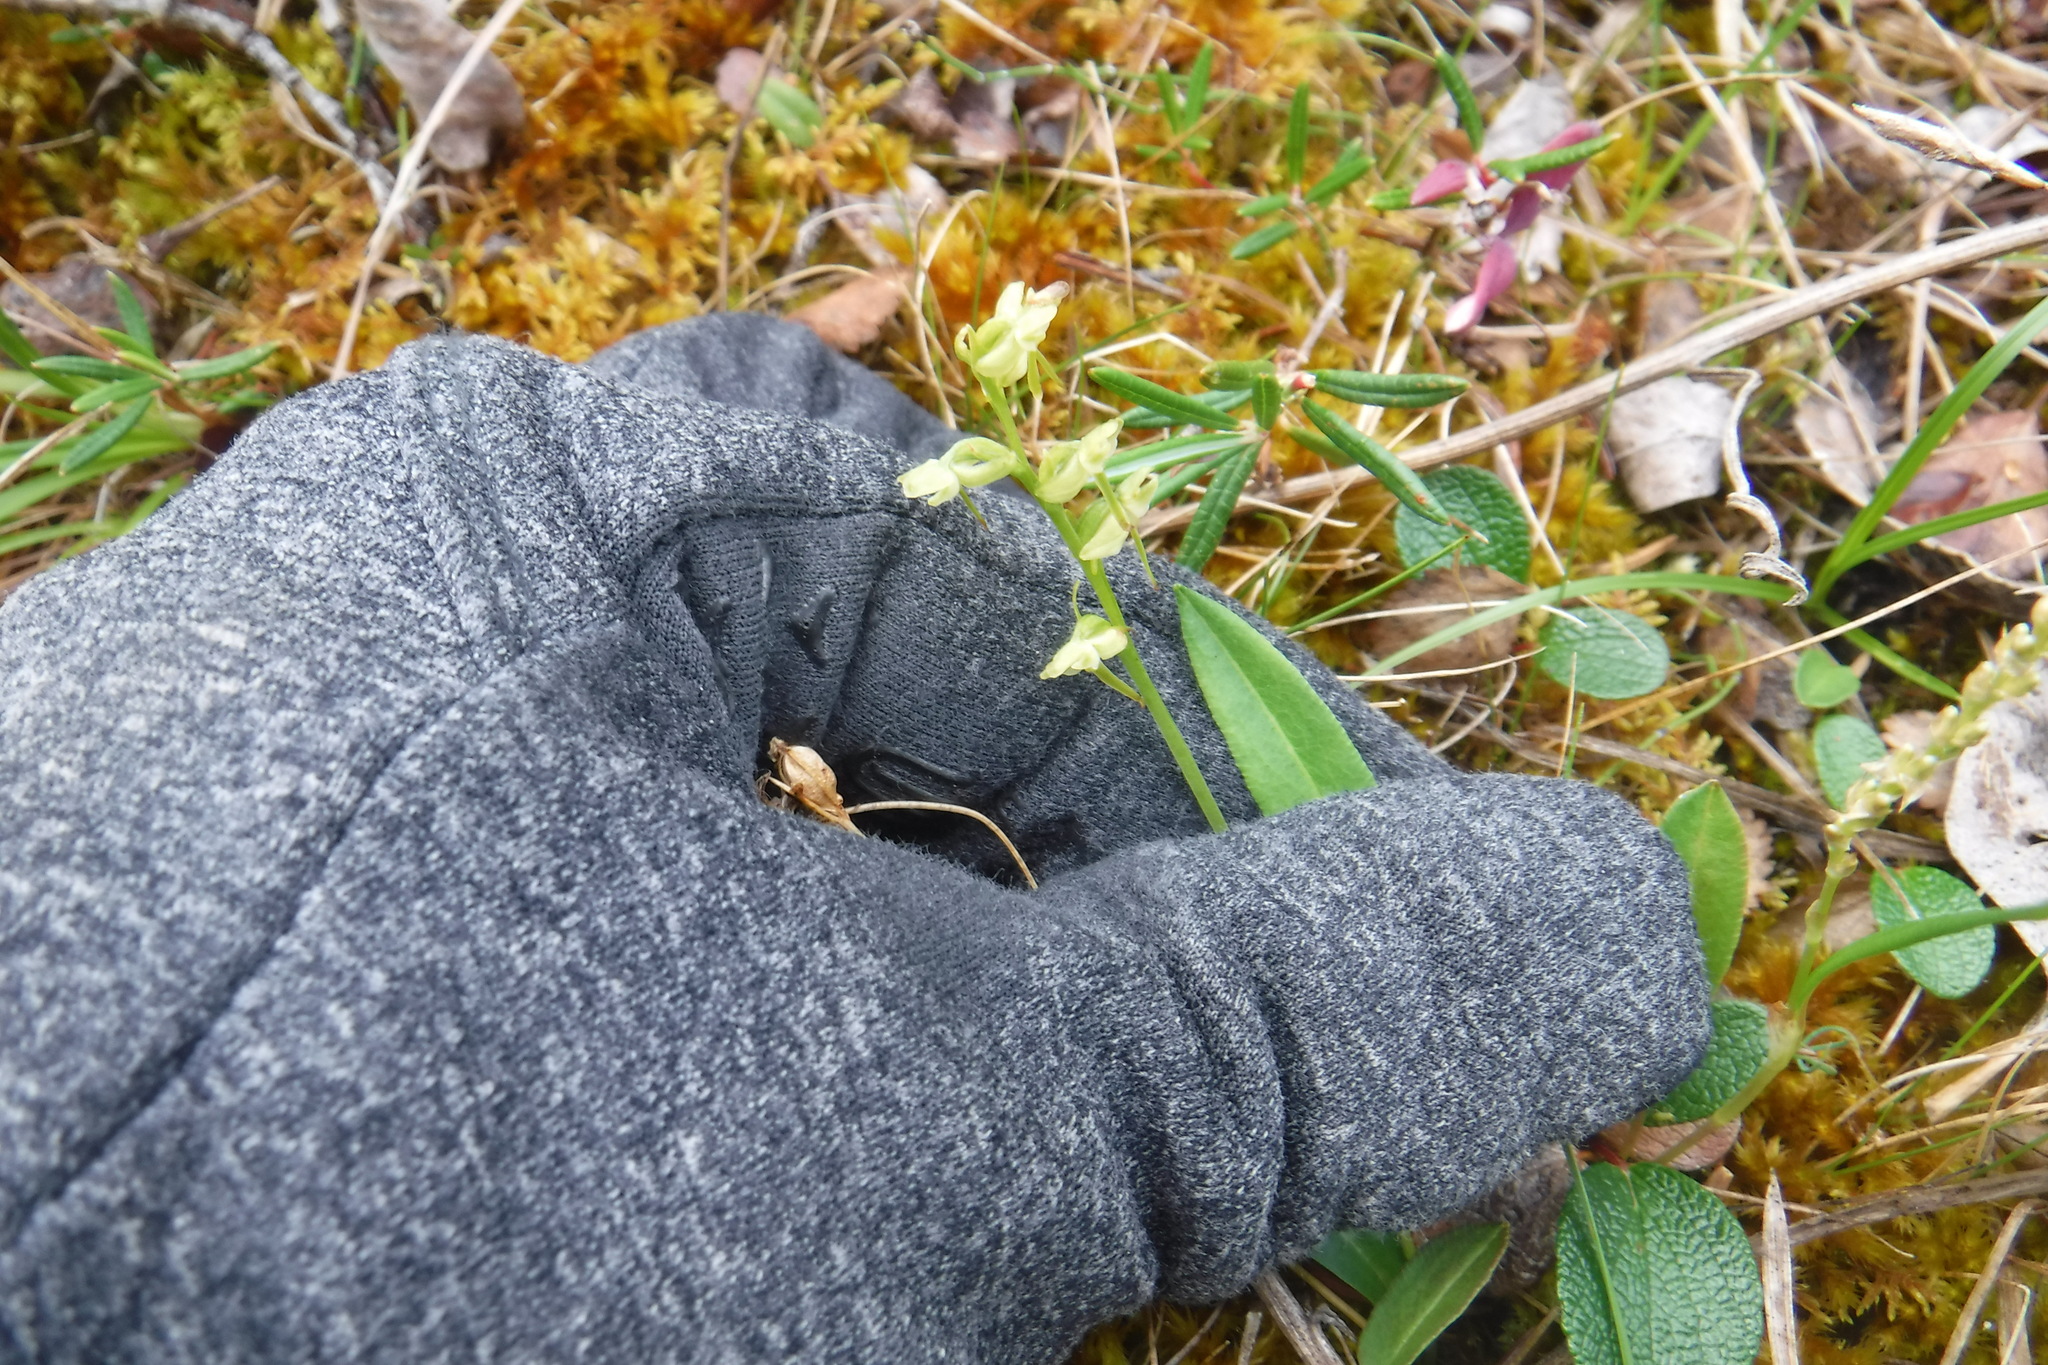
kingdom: Plantae
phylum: Tracheophyta
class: Liliopsida
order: Asparagales
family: Orchidaceae
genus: Platanthera
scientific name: Platanthera obtusata
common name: Blunt bog orchid
